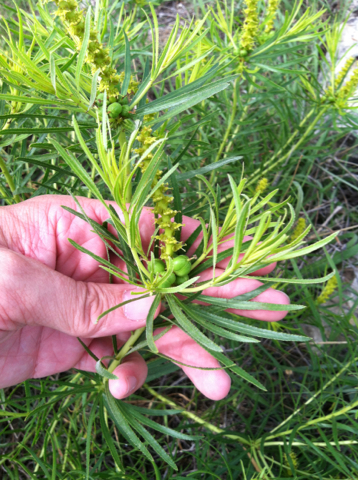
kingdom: Plantae
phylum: Tracheophyta
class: Magnoliopsida
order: Malpighiales
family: Euphorbiaceae
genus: Stillingia
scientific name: Stillingia texana
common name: Texas stillingia
